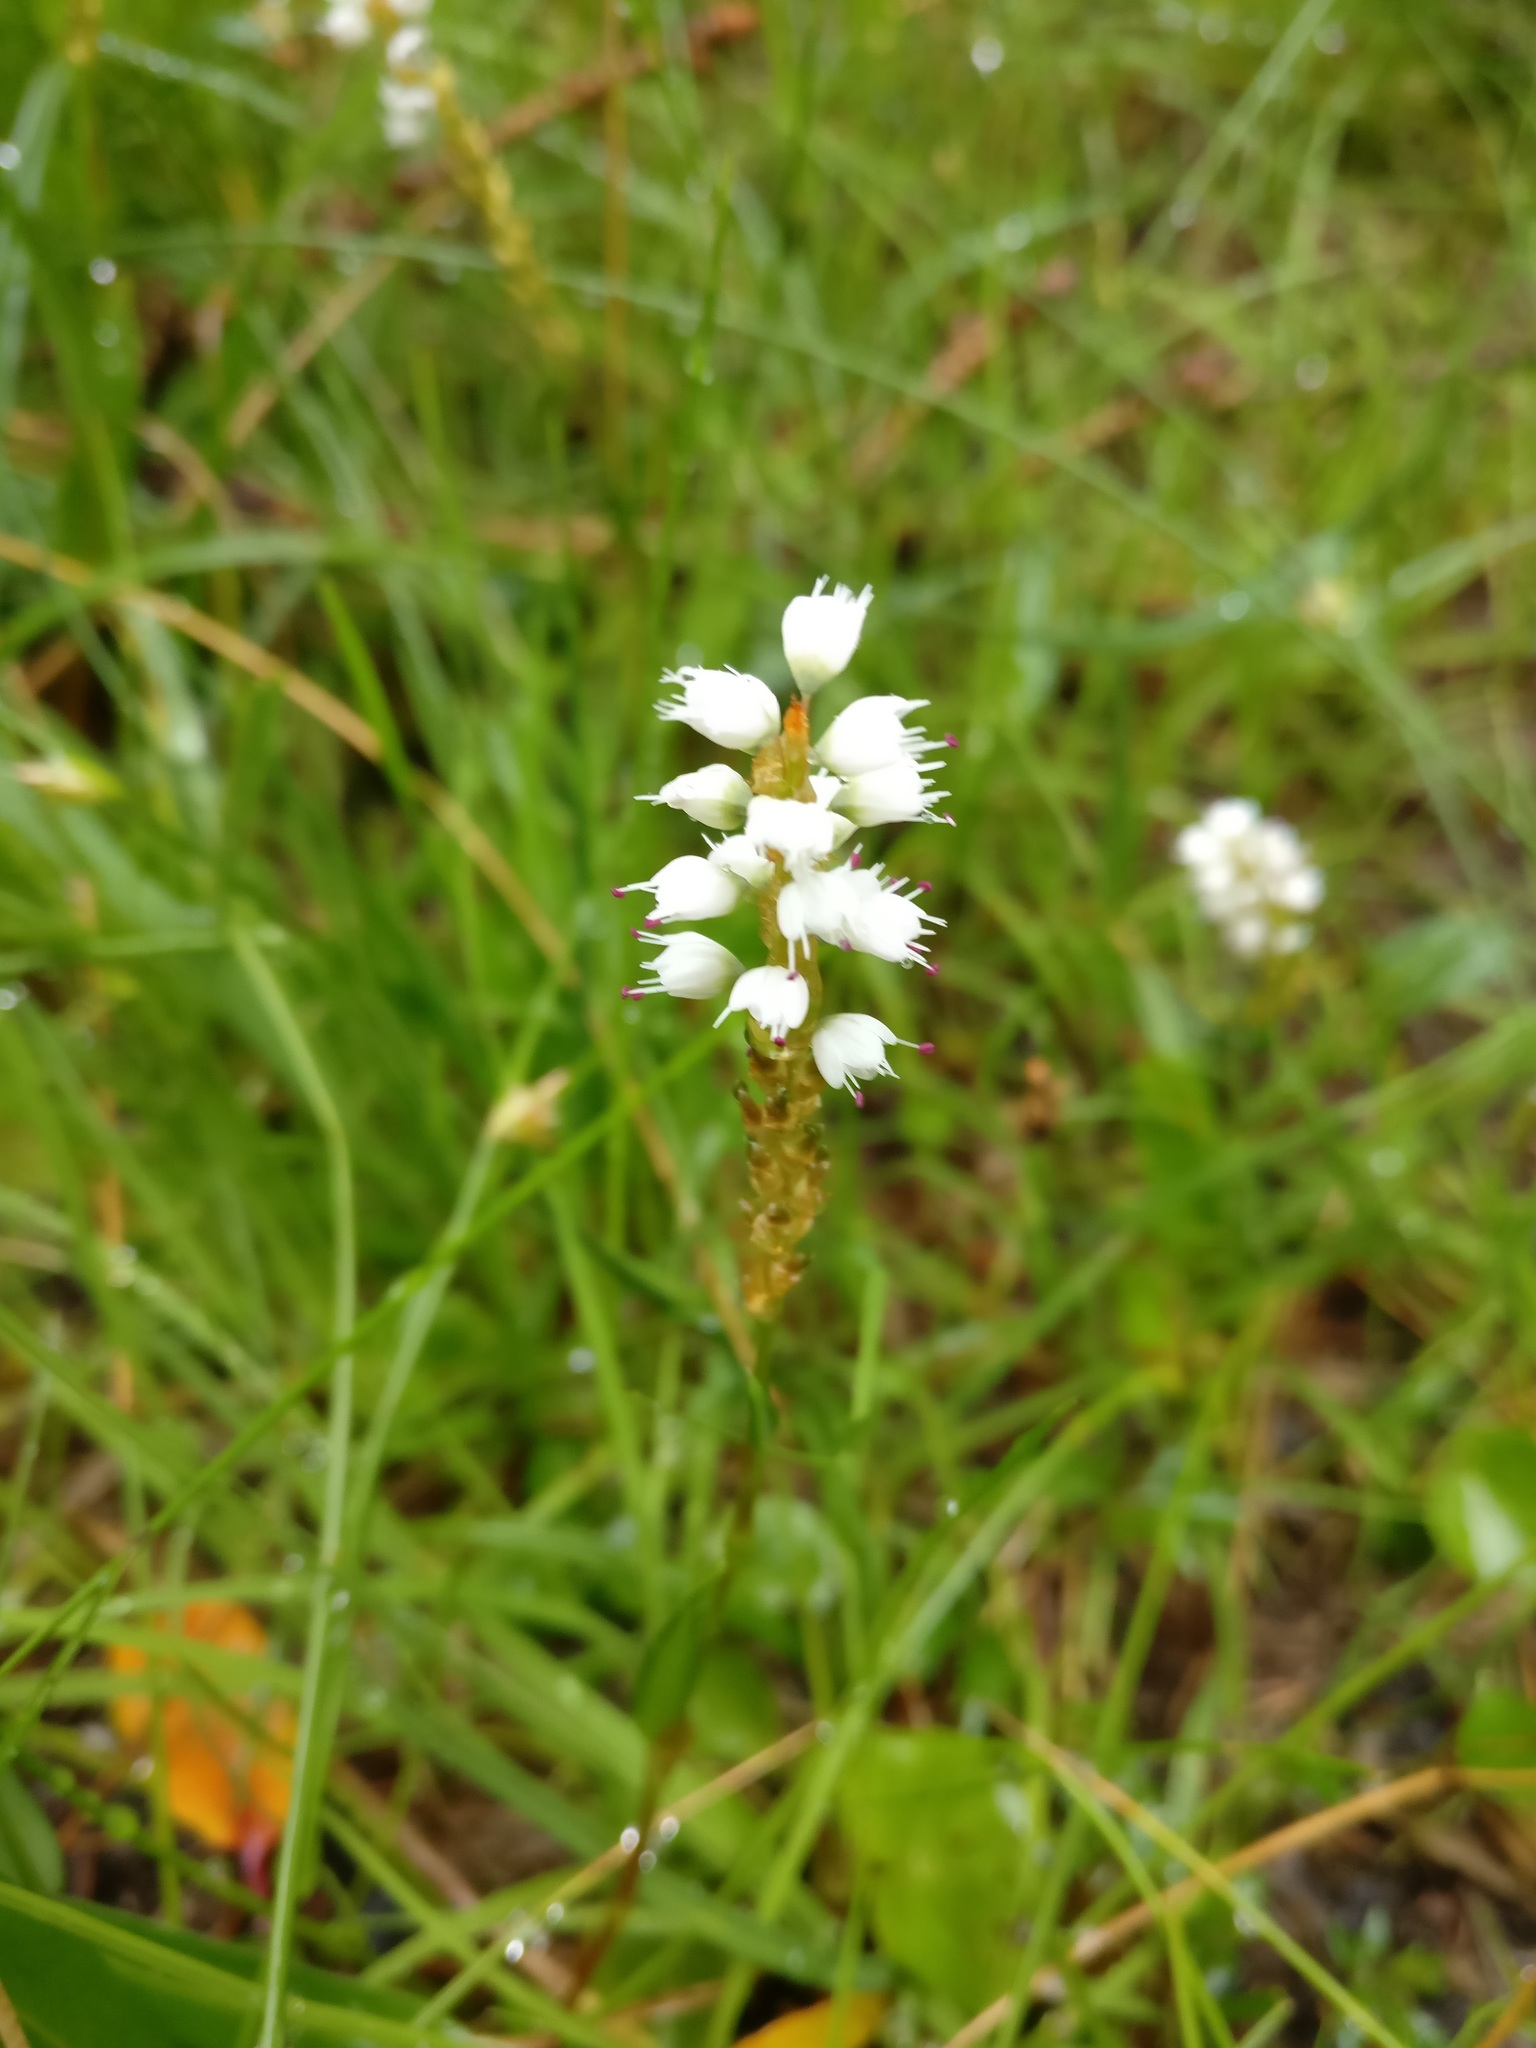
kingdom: Plantae
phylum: Tracheophyta
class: Magnoliopsida
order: Caryophyllales
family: Polygonaceae
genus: Bistorta
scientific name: Bistorta vivipara
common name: Alpine bistort
